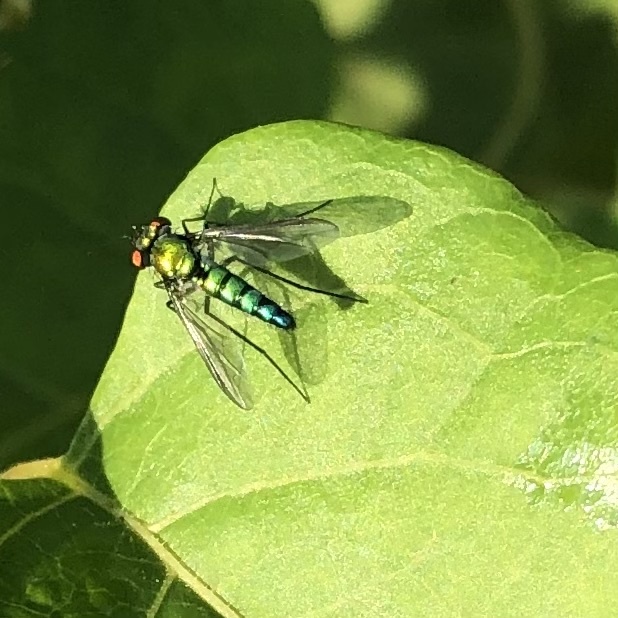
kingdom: Animalia
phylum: Arthropoda
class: Insecta
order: Diptera
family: Dolichopodidae
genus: Condylostylus
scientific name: Condylostylus longicornis
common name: Long-legged fly
